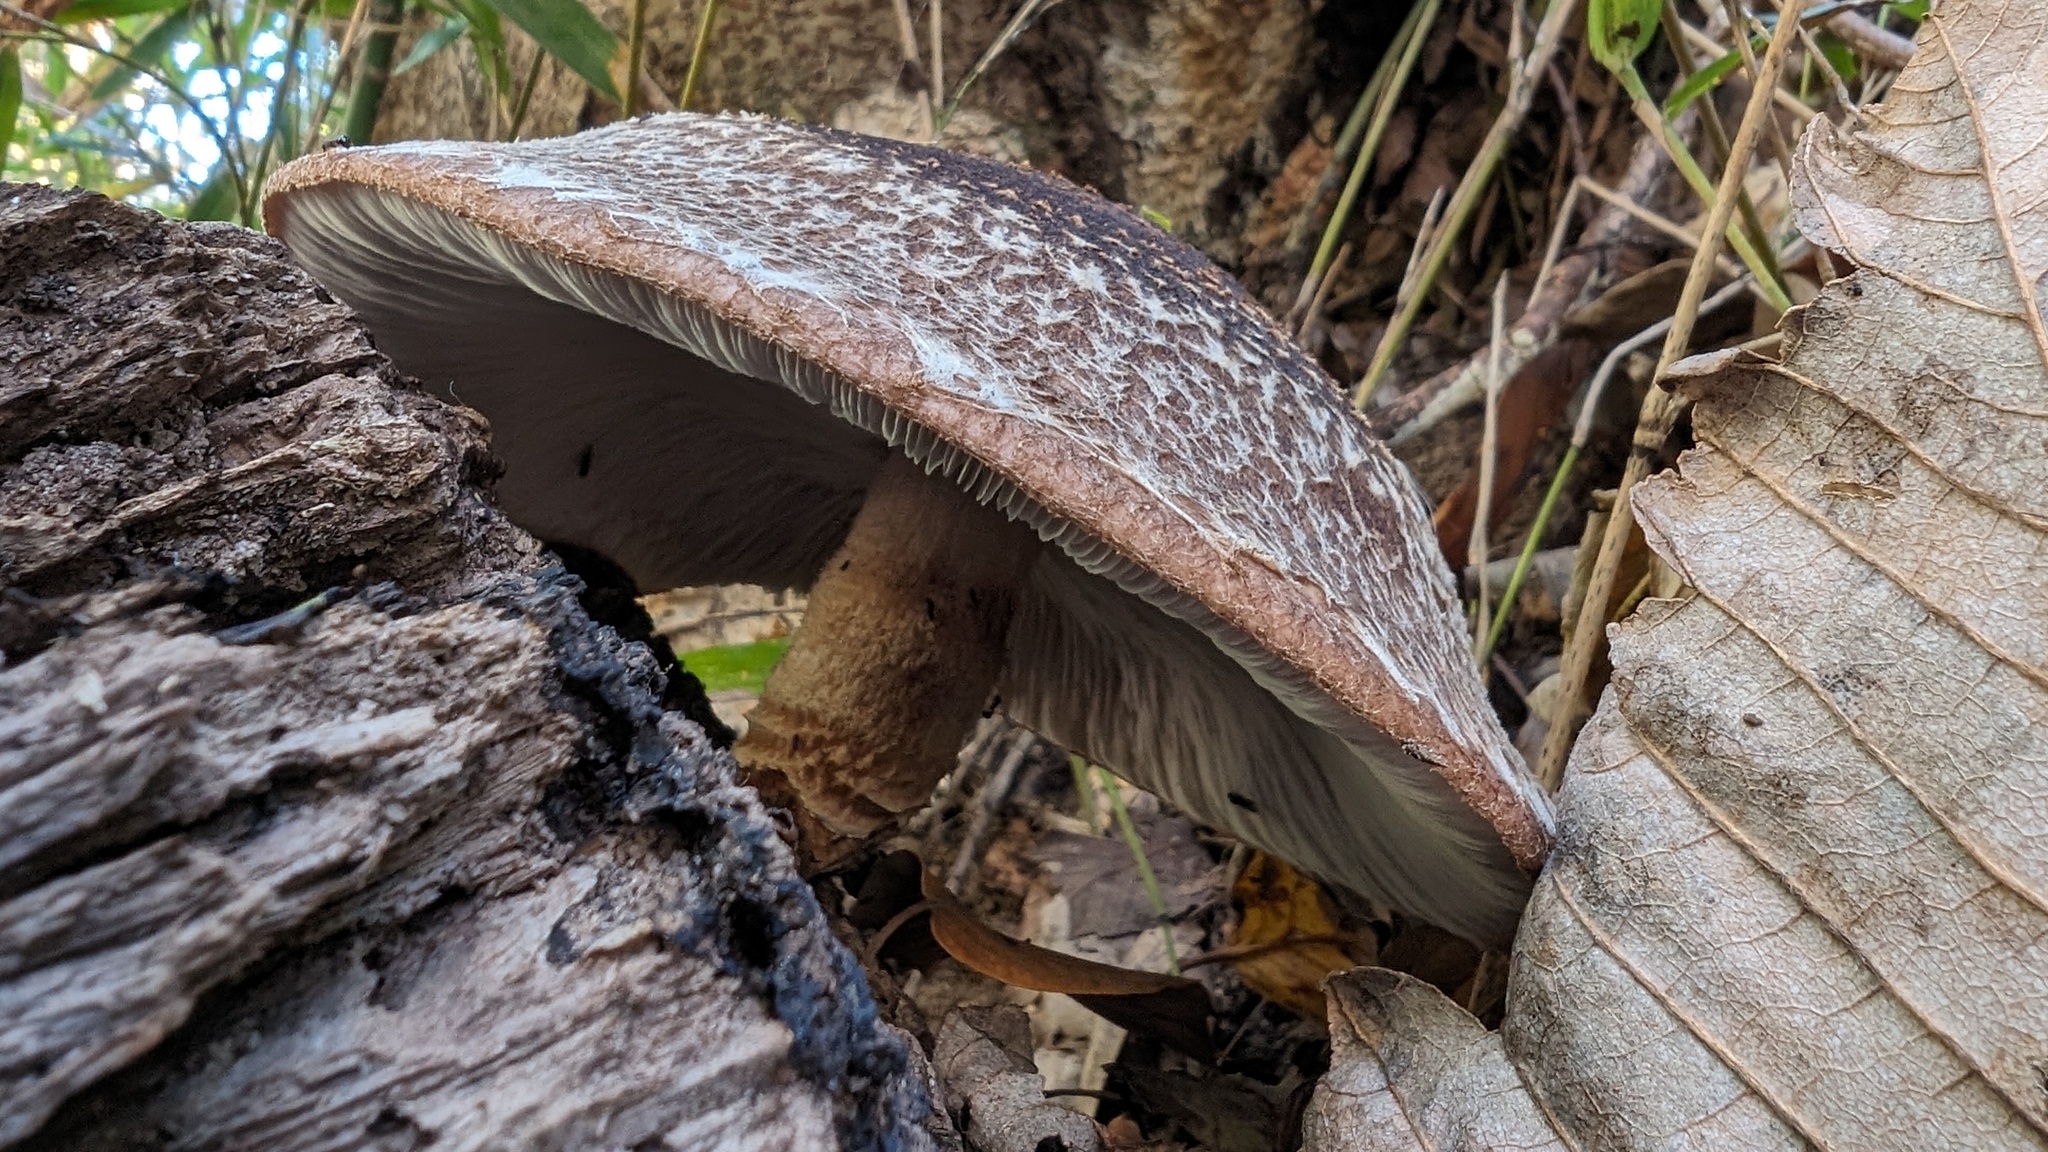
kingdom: Fungi
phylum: Basidiomycota
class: Agaricomycetes
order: Agaricales
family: Omphalotaceae
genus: Lentinula
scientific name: Lentinula edodes
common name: Shiitake
